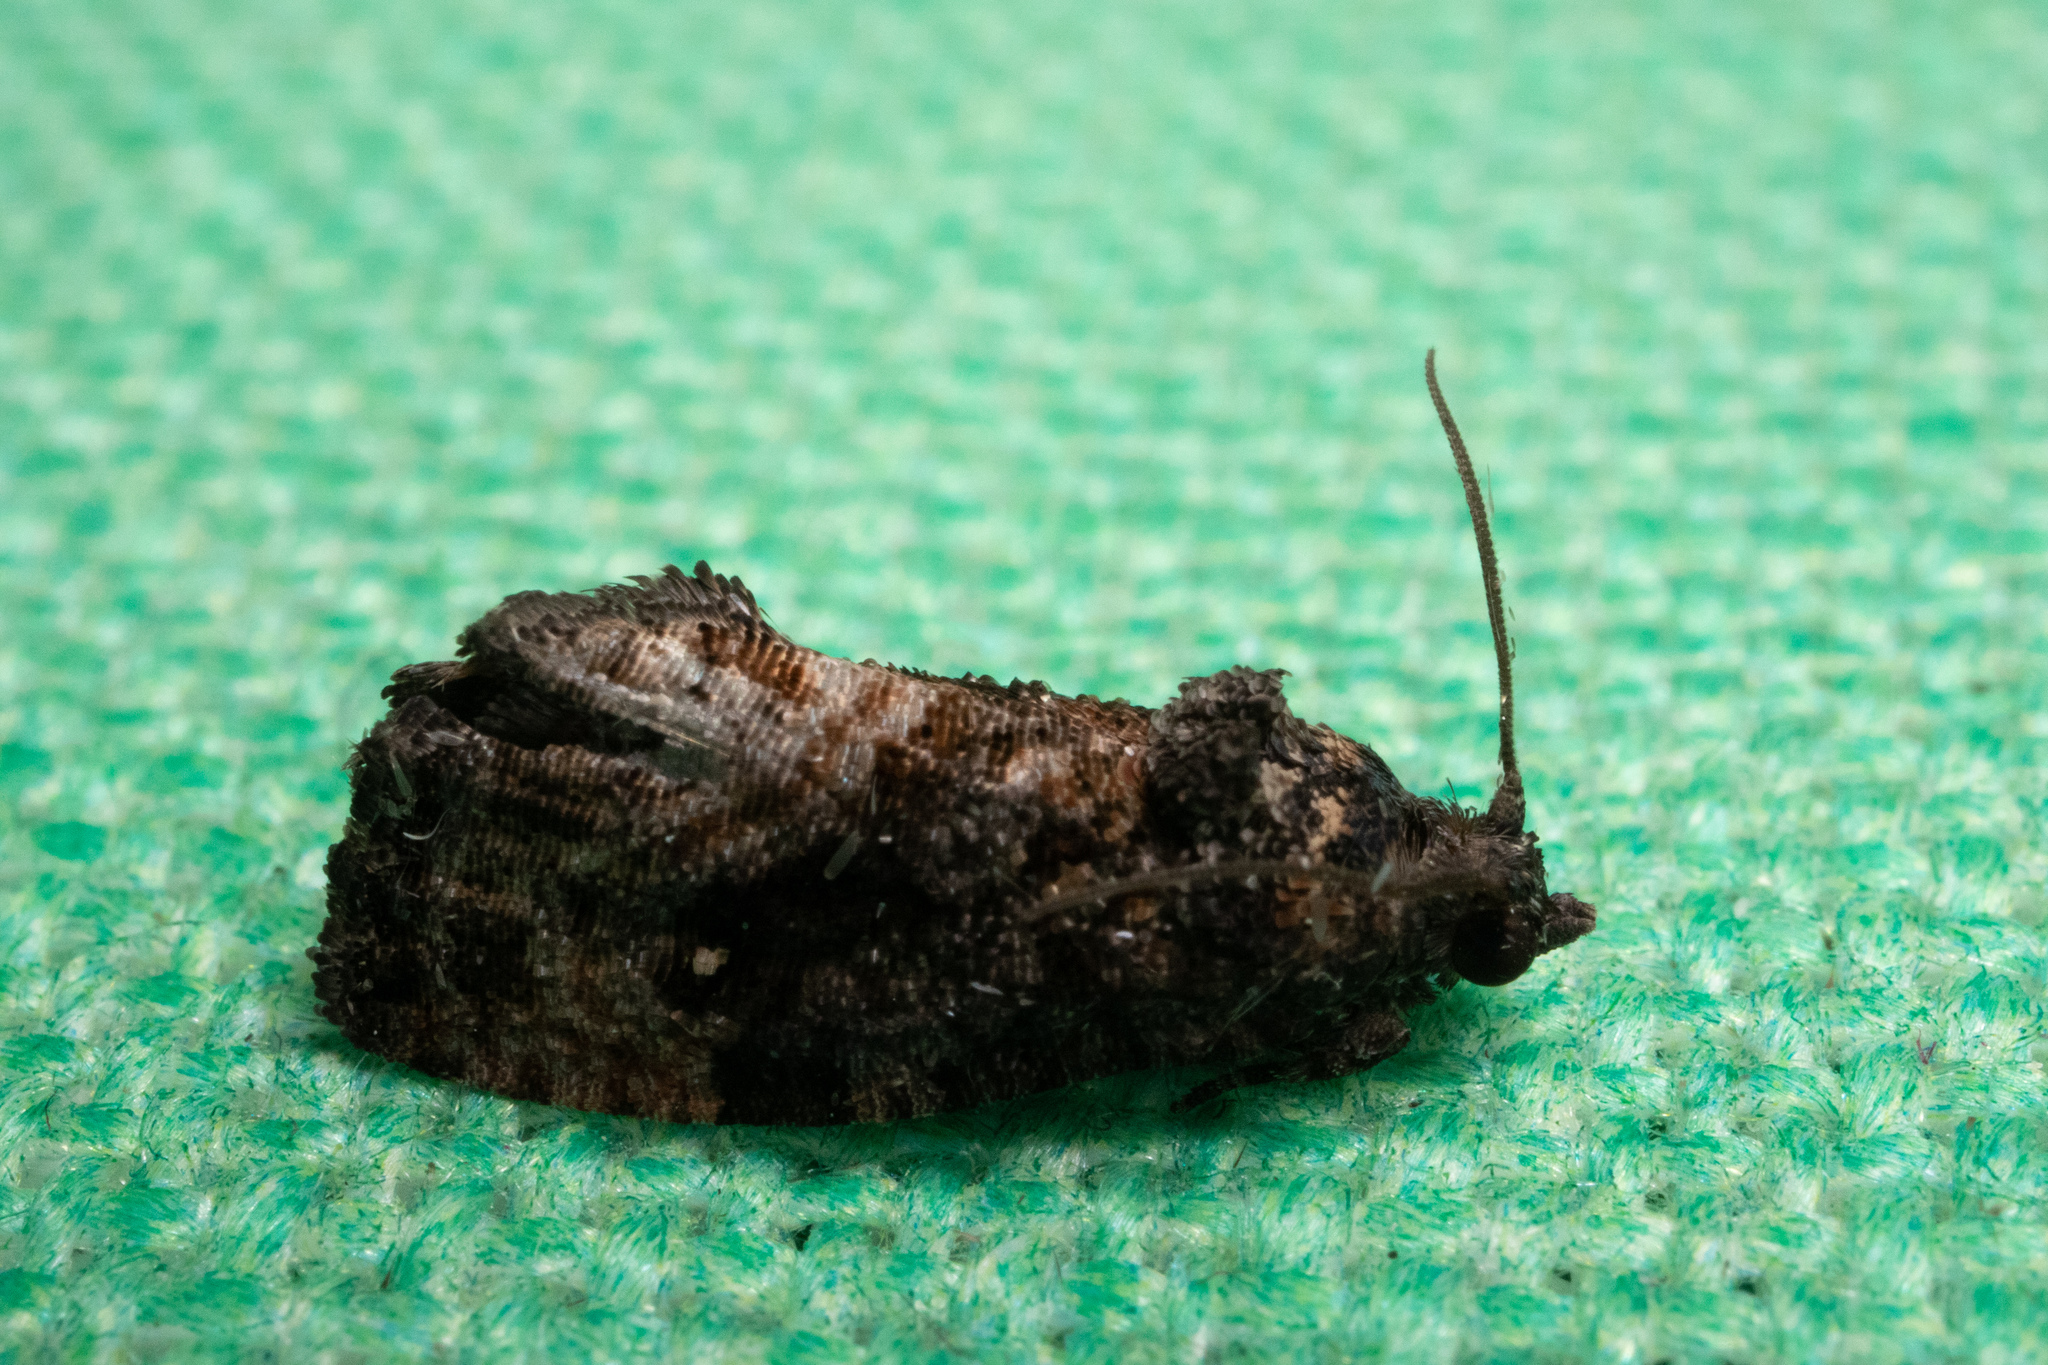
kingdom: Animalia
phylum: Arthropoda
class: Insecta
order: Lepidoptera
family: Tortricidae
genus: Gymnandrosoma
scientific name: Gymnandrosoma punctidiscanum
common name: Dotted ecdytolopha moth
